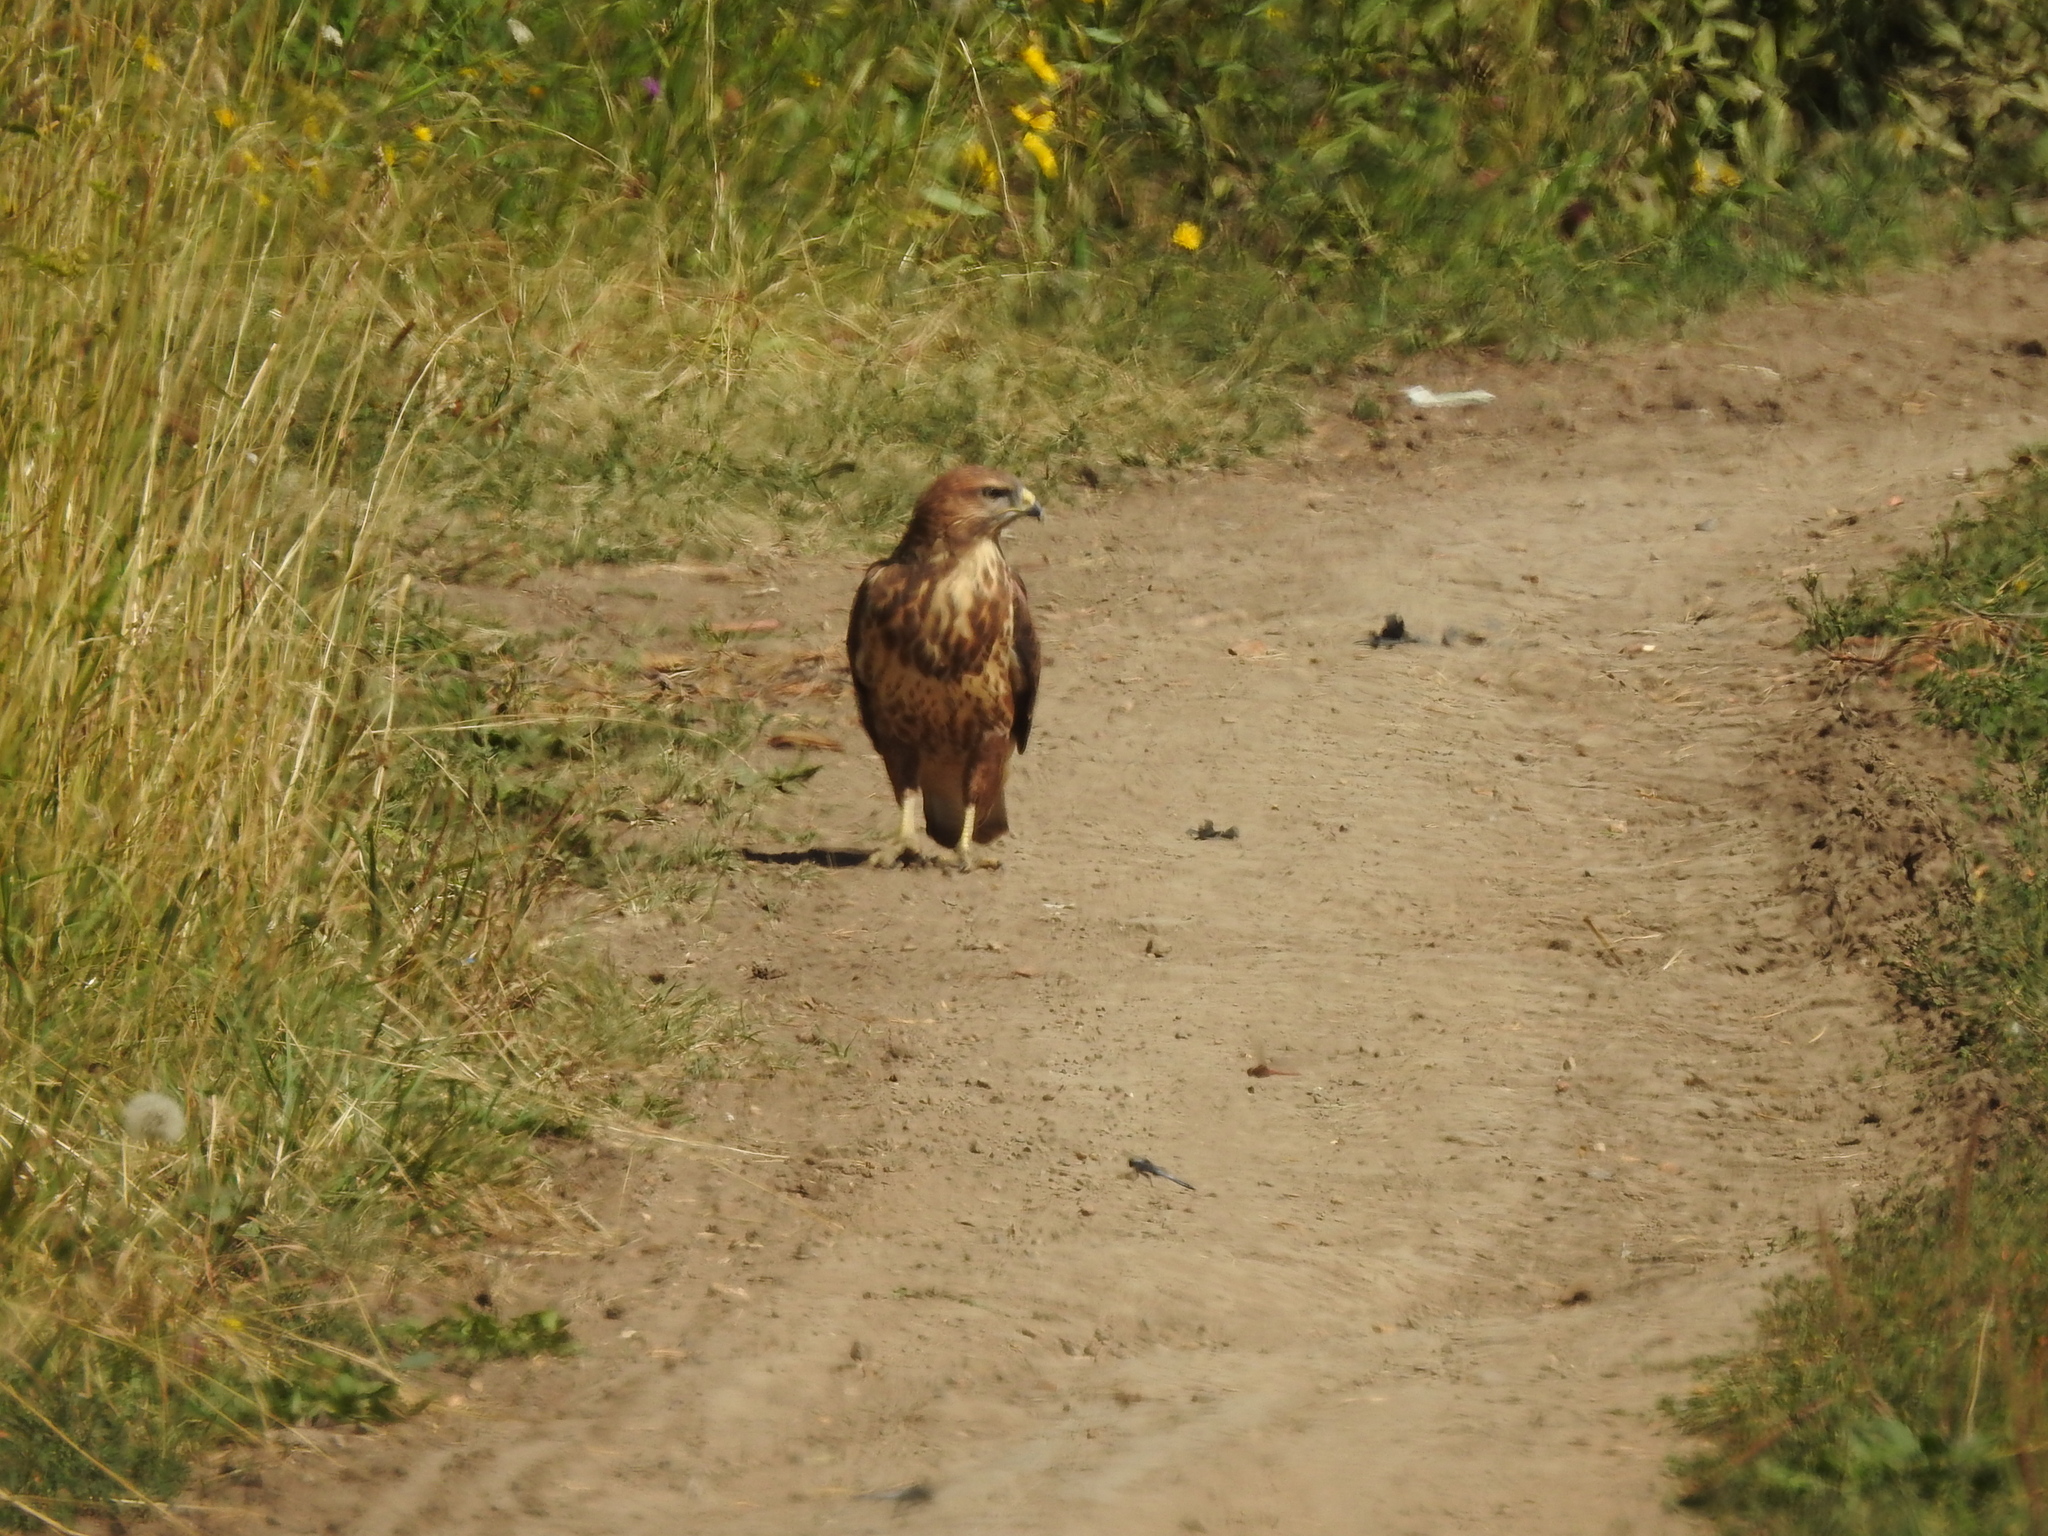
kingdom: Animalia
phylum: Chordata
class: Aves
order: Accipitriformes
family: Accipitridae
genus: Buteo
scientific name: Buteo buteo
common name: Common buzzard
